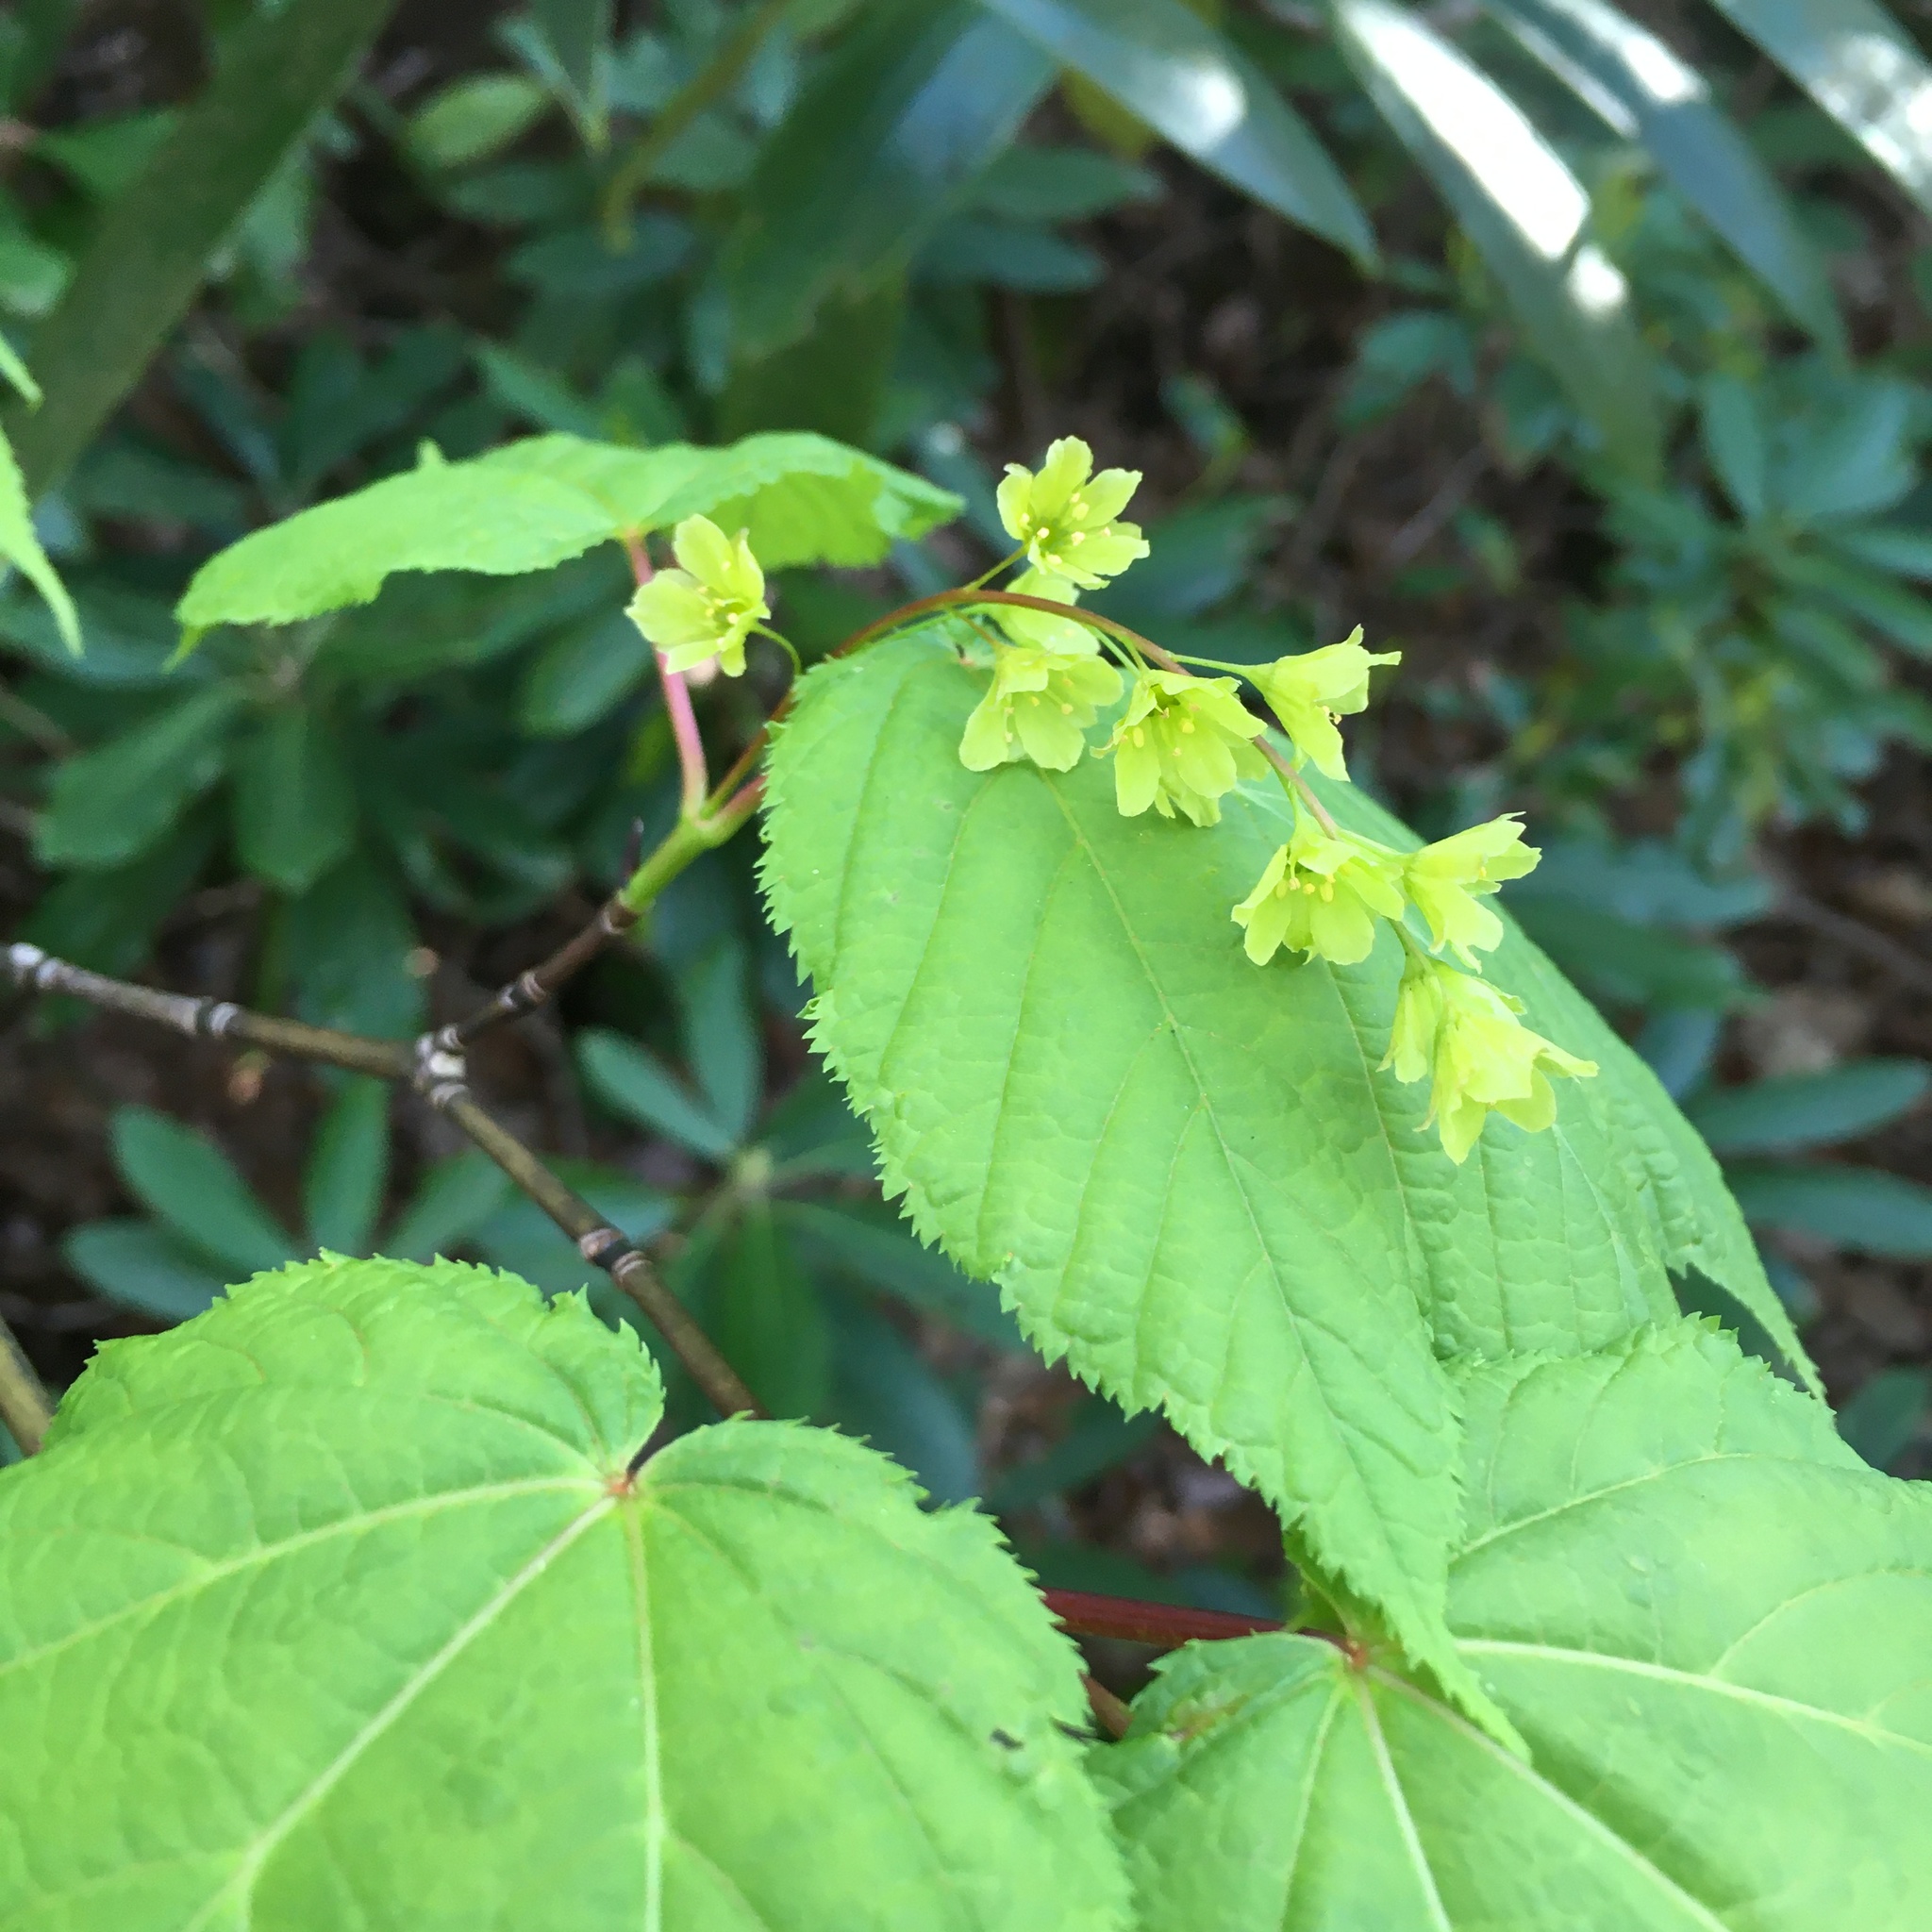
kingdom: Plantae
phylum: Tracheophyta
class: Magnoliopsida
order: Sapindales
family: Sapindaceae
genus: Acer
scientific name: Acer pensylvanicum
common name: Moosewood
